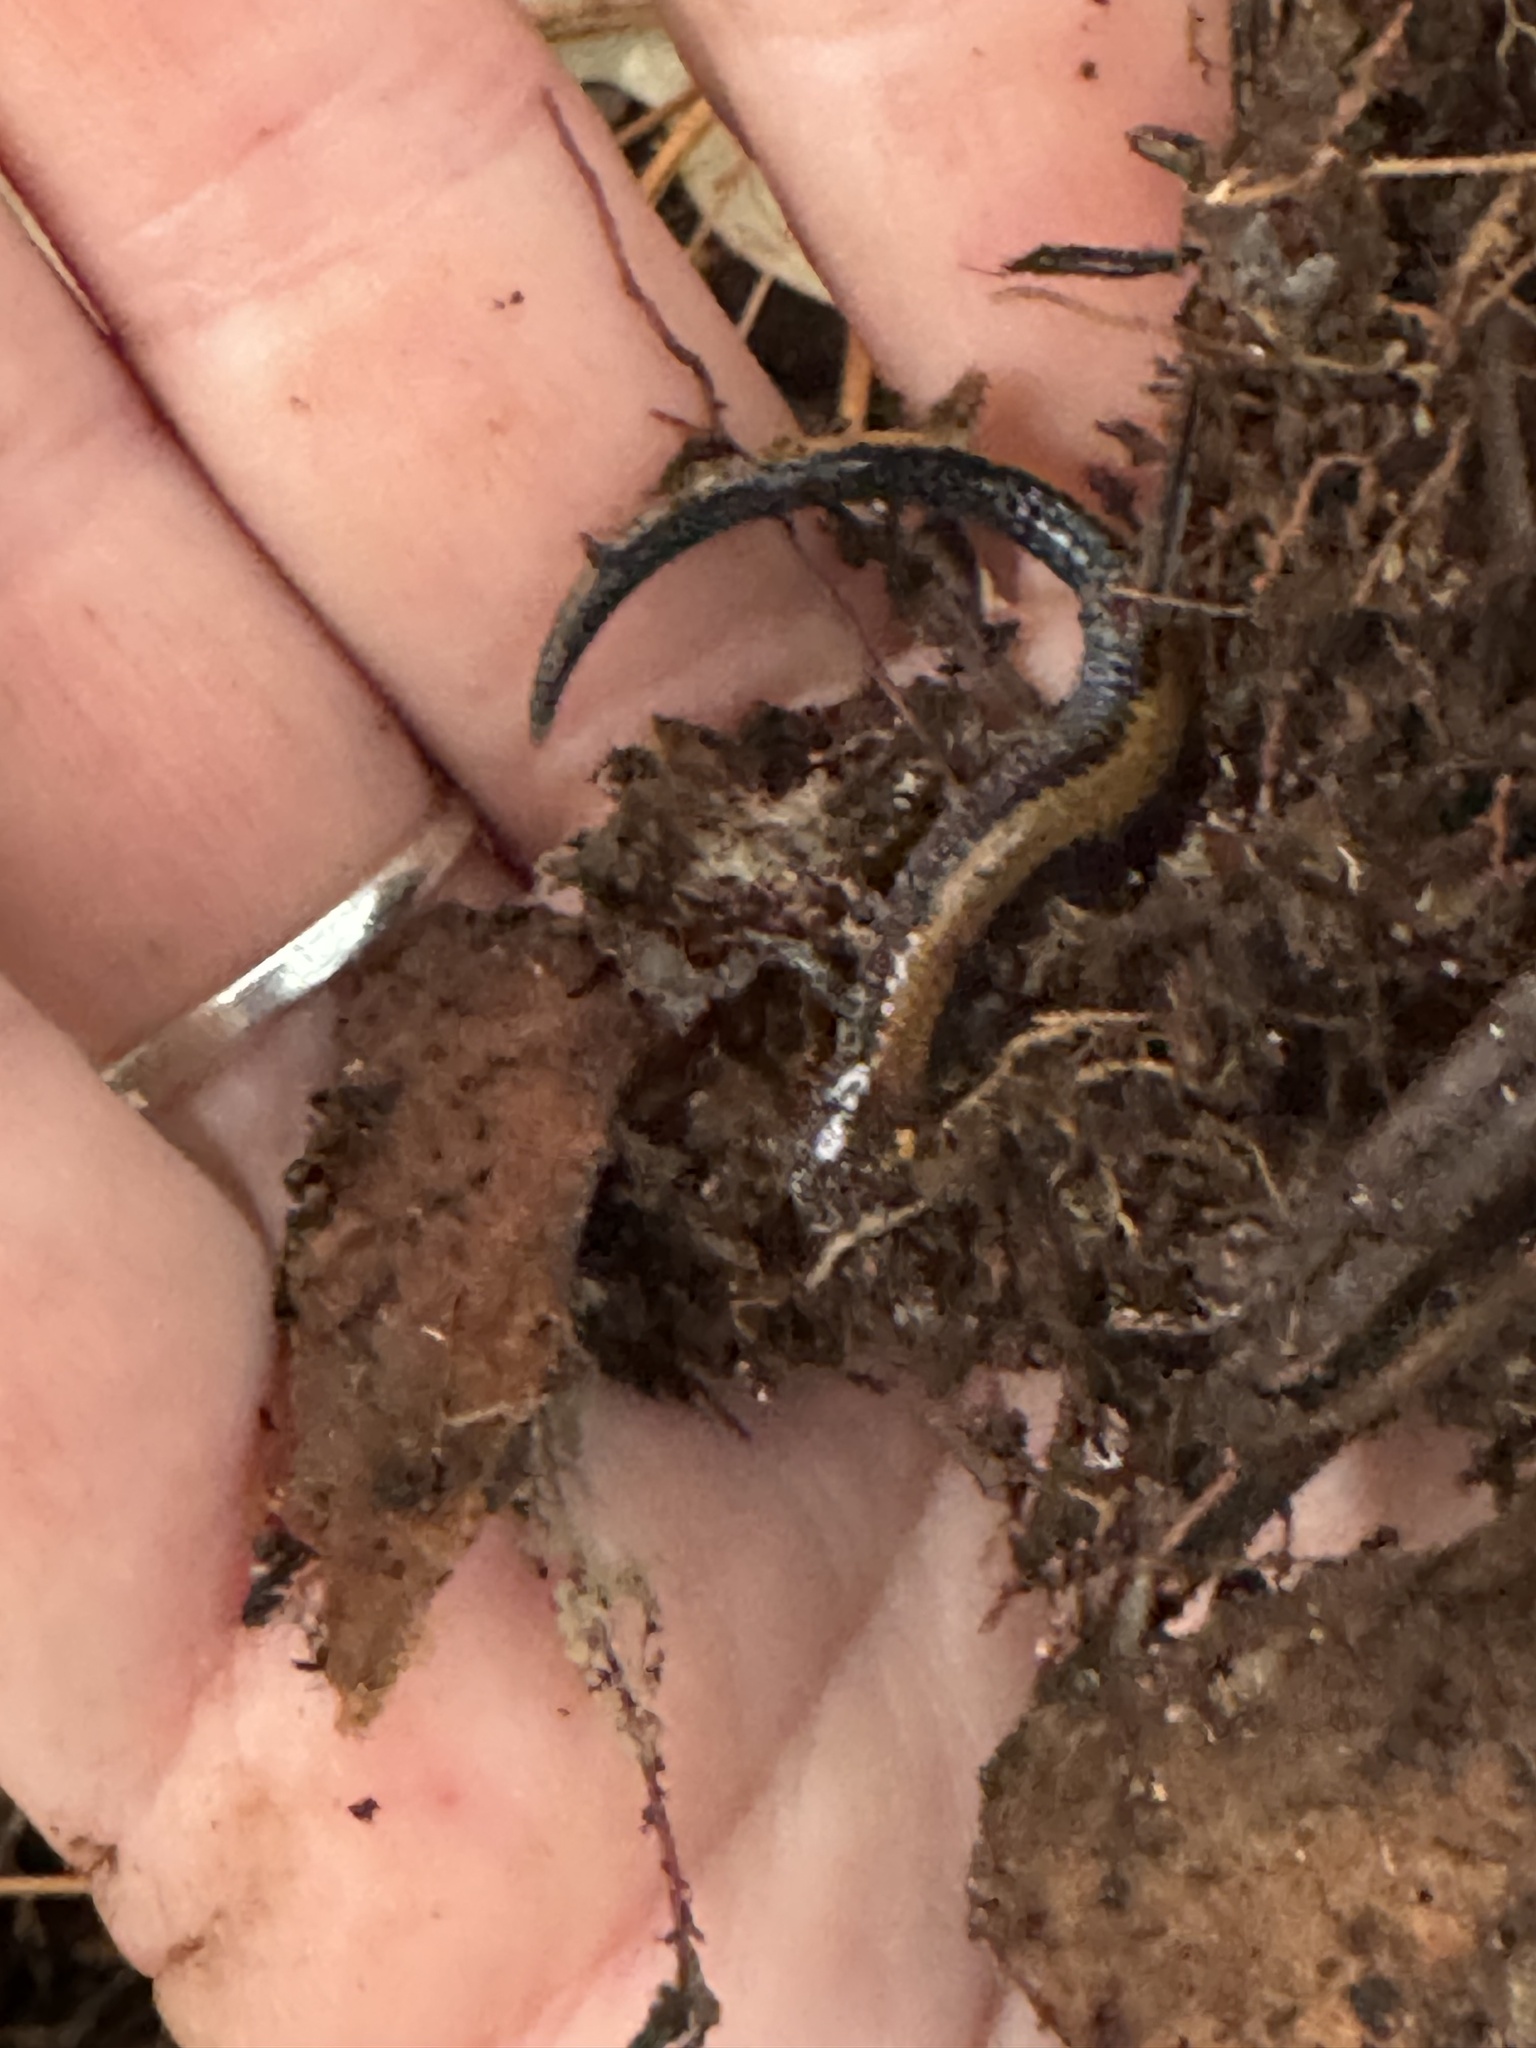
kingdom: Animalia
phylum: Chordata
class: Amphibia
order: Caudata
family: Plethodontidae
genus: Plethodon
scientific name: Plethodon cinereus
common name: Redback salamander
